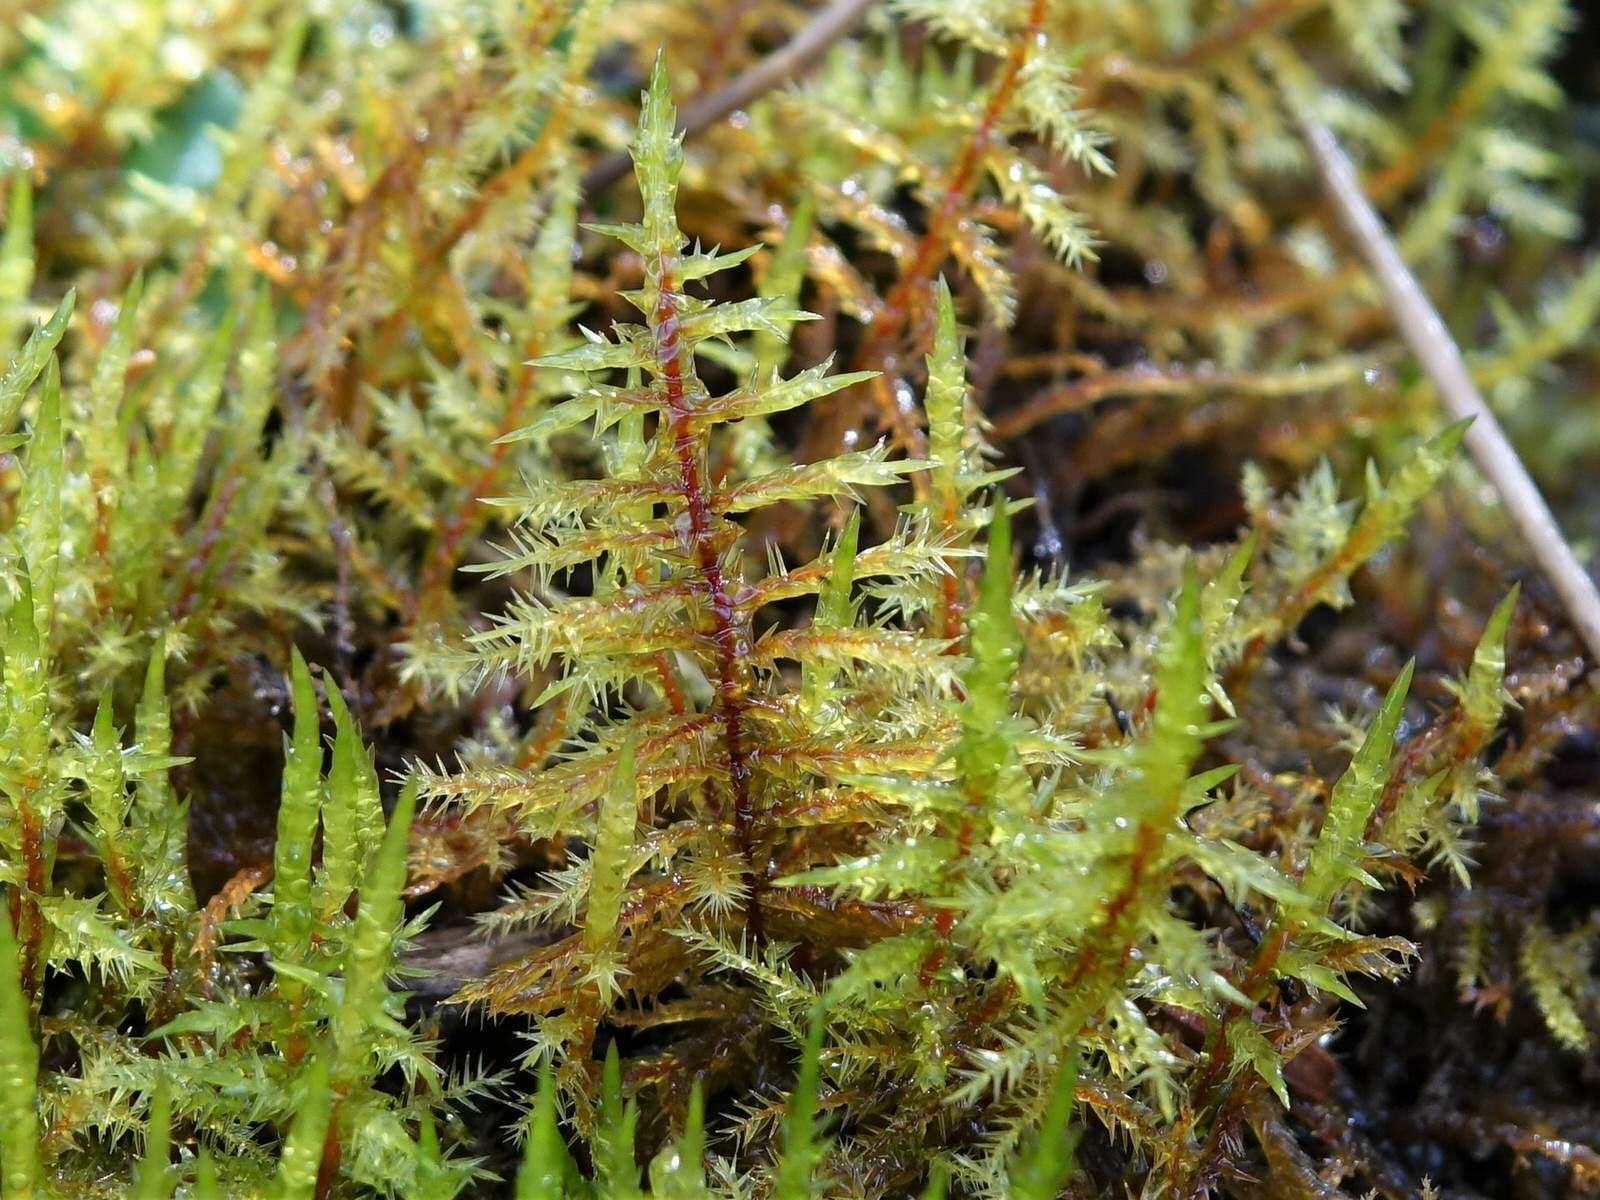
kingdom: Plantae
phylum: Bryophyta
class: Bryopsida
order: Hypnales
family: Brachytheciaceae
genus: Kindbergia
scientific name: Kindbergia praelonga
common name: Slender beaked moss
